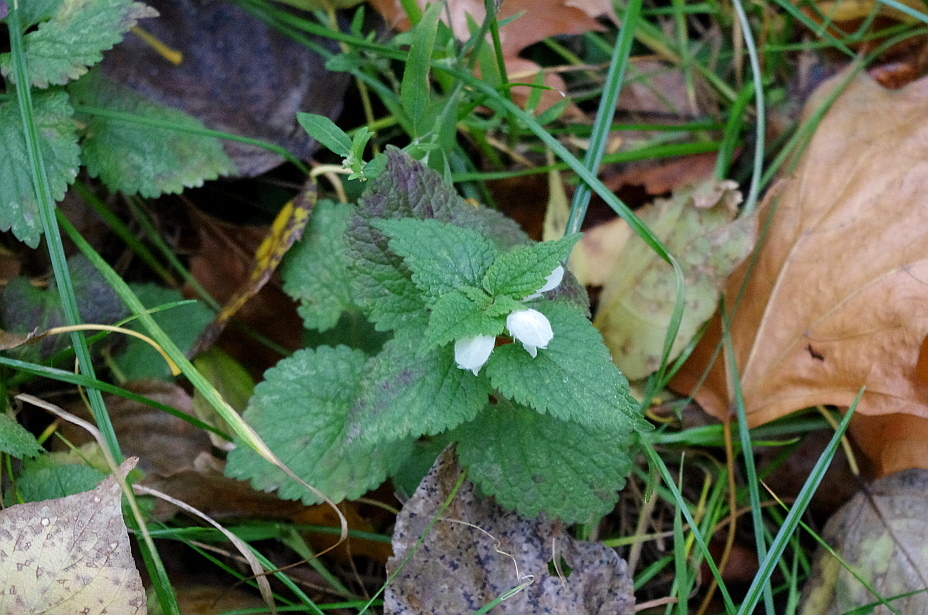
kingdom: Plantae
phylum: Tracheophyta
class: Magnoliopsida
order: Lamiales
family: Lamiaceae
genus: Lamium
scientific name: Lamium album
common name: White dead-nettle
